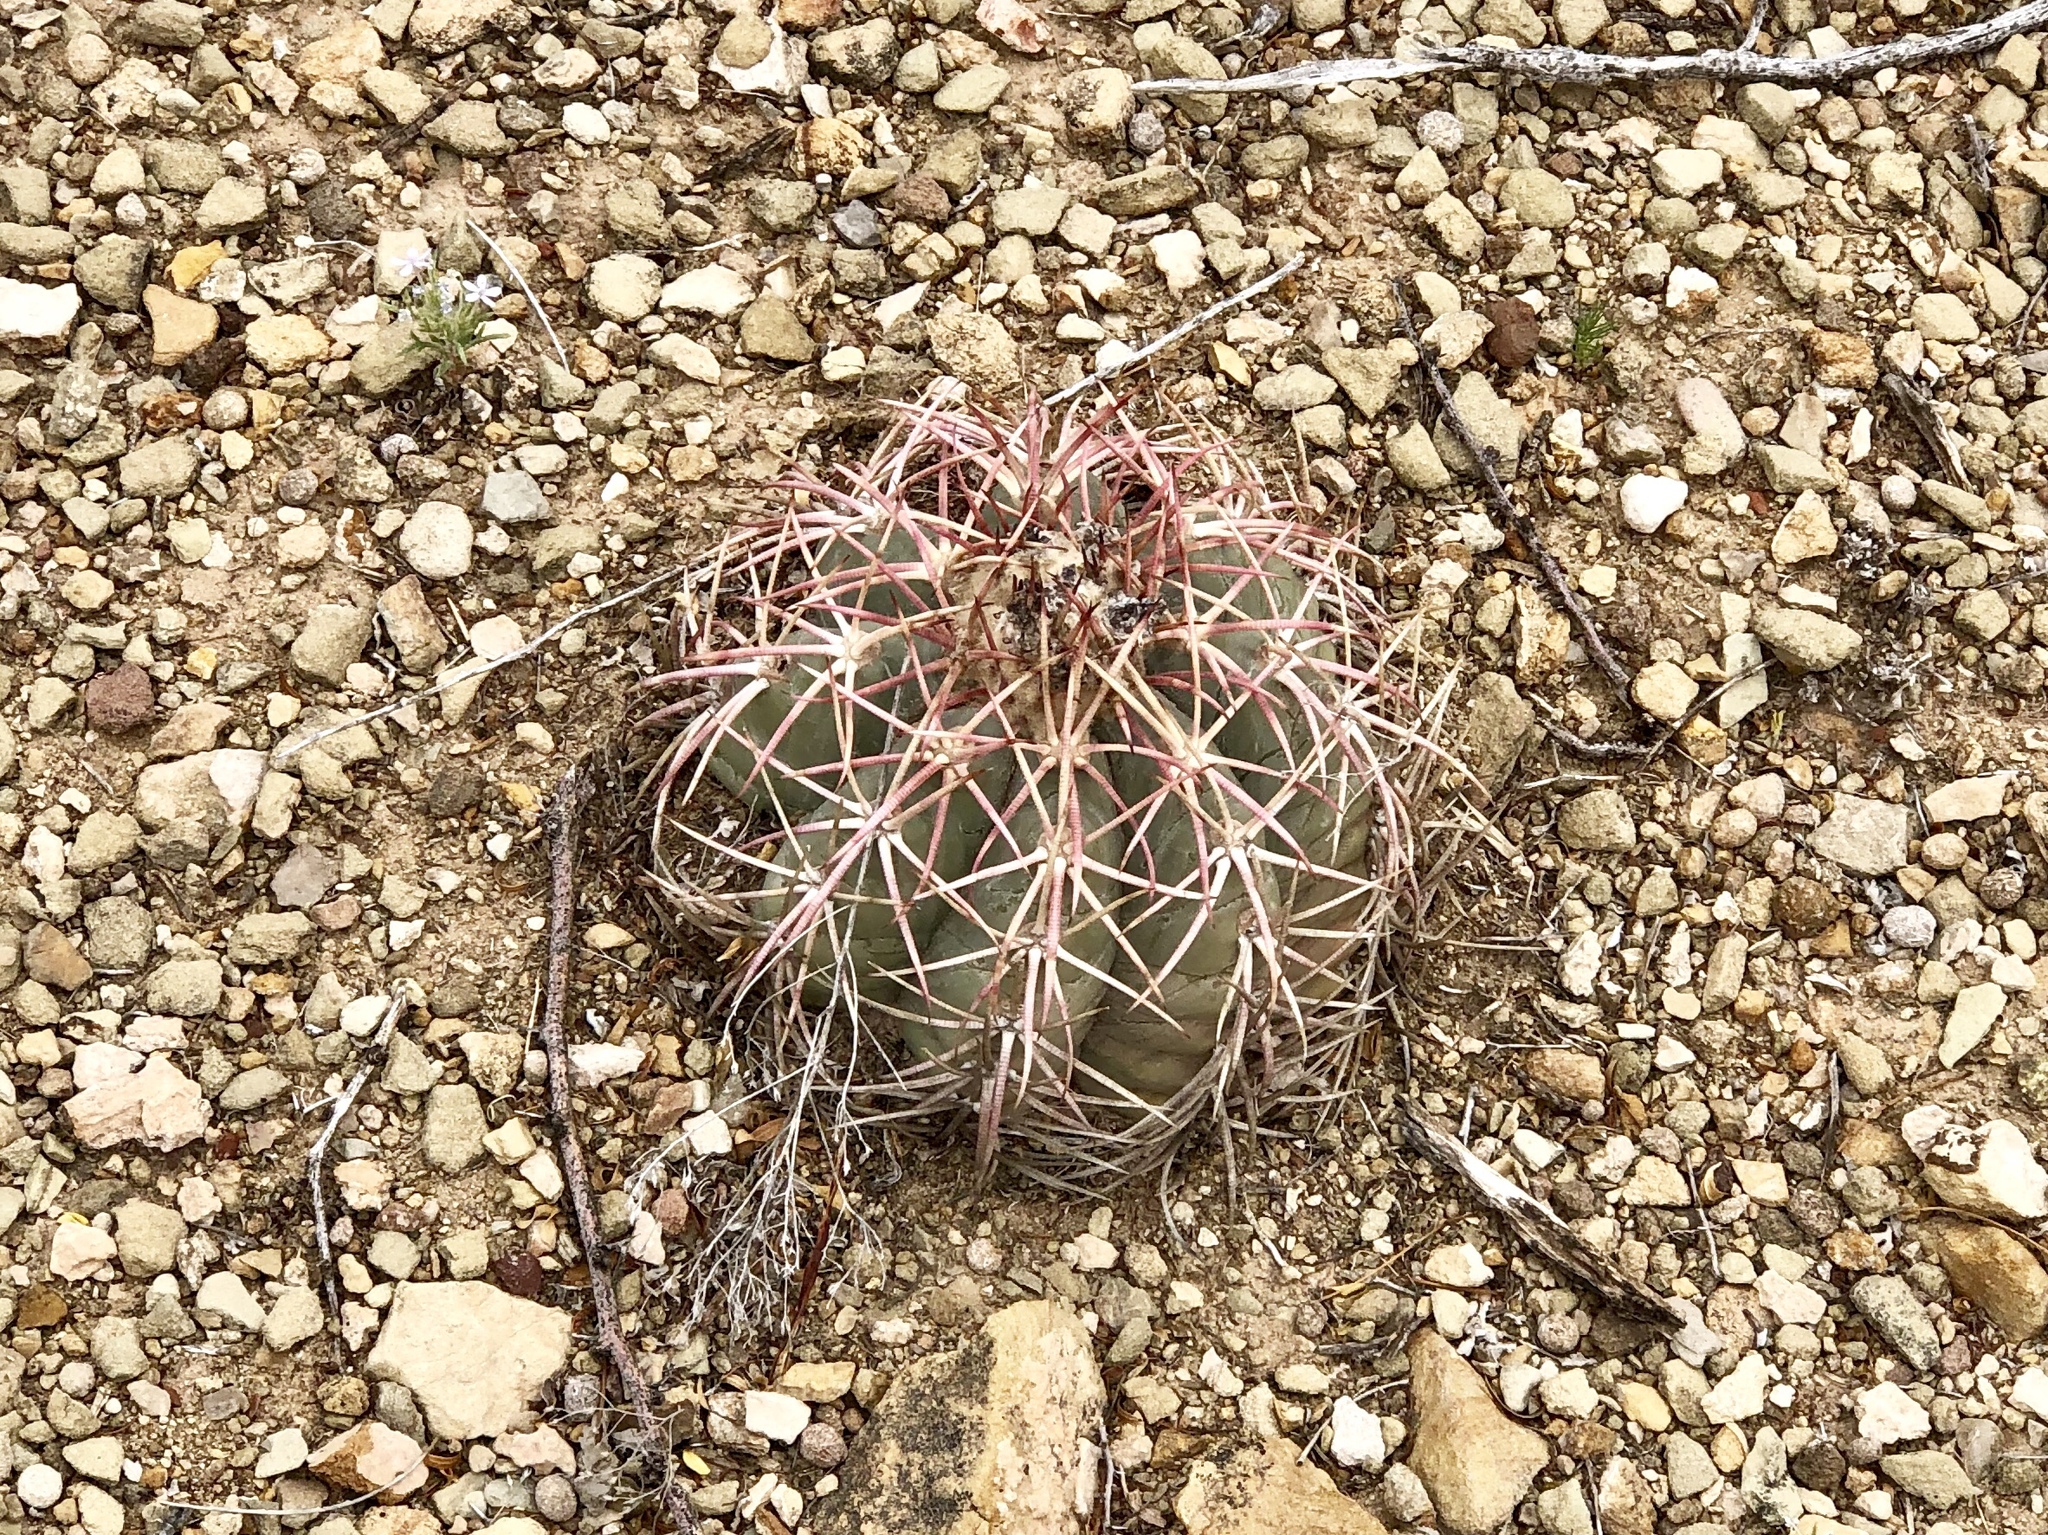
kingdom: Plantae
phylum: Tracheophyta
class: Magnoliopsida
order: Caryophyllales
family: Cactaceae
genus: Echinocactus
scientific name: Echinocactus horizonthalonius
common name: Devilshead
